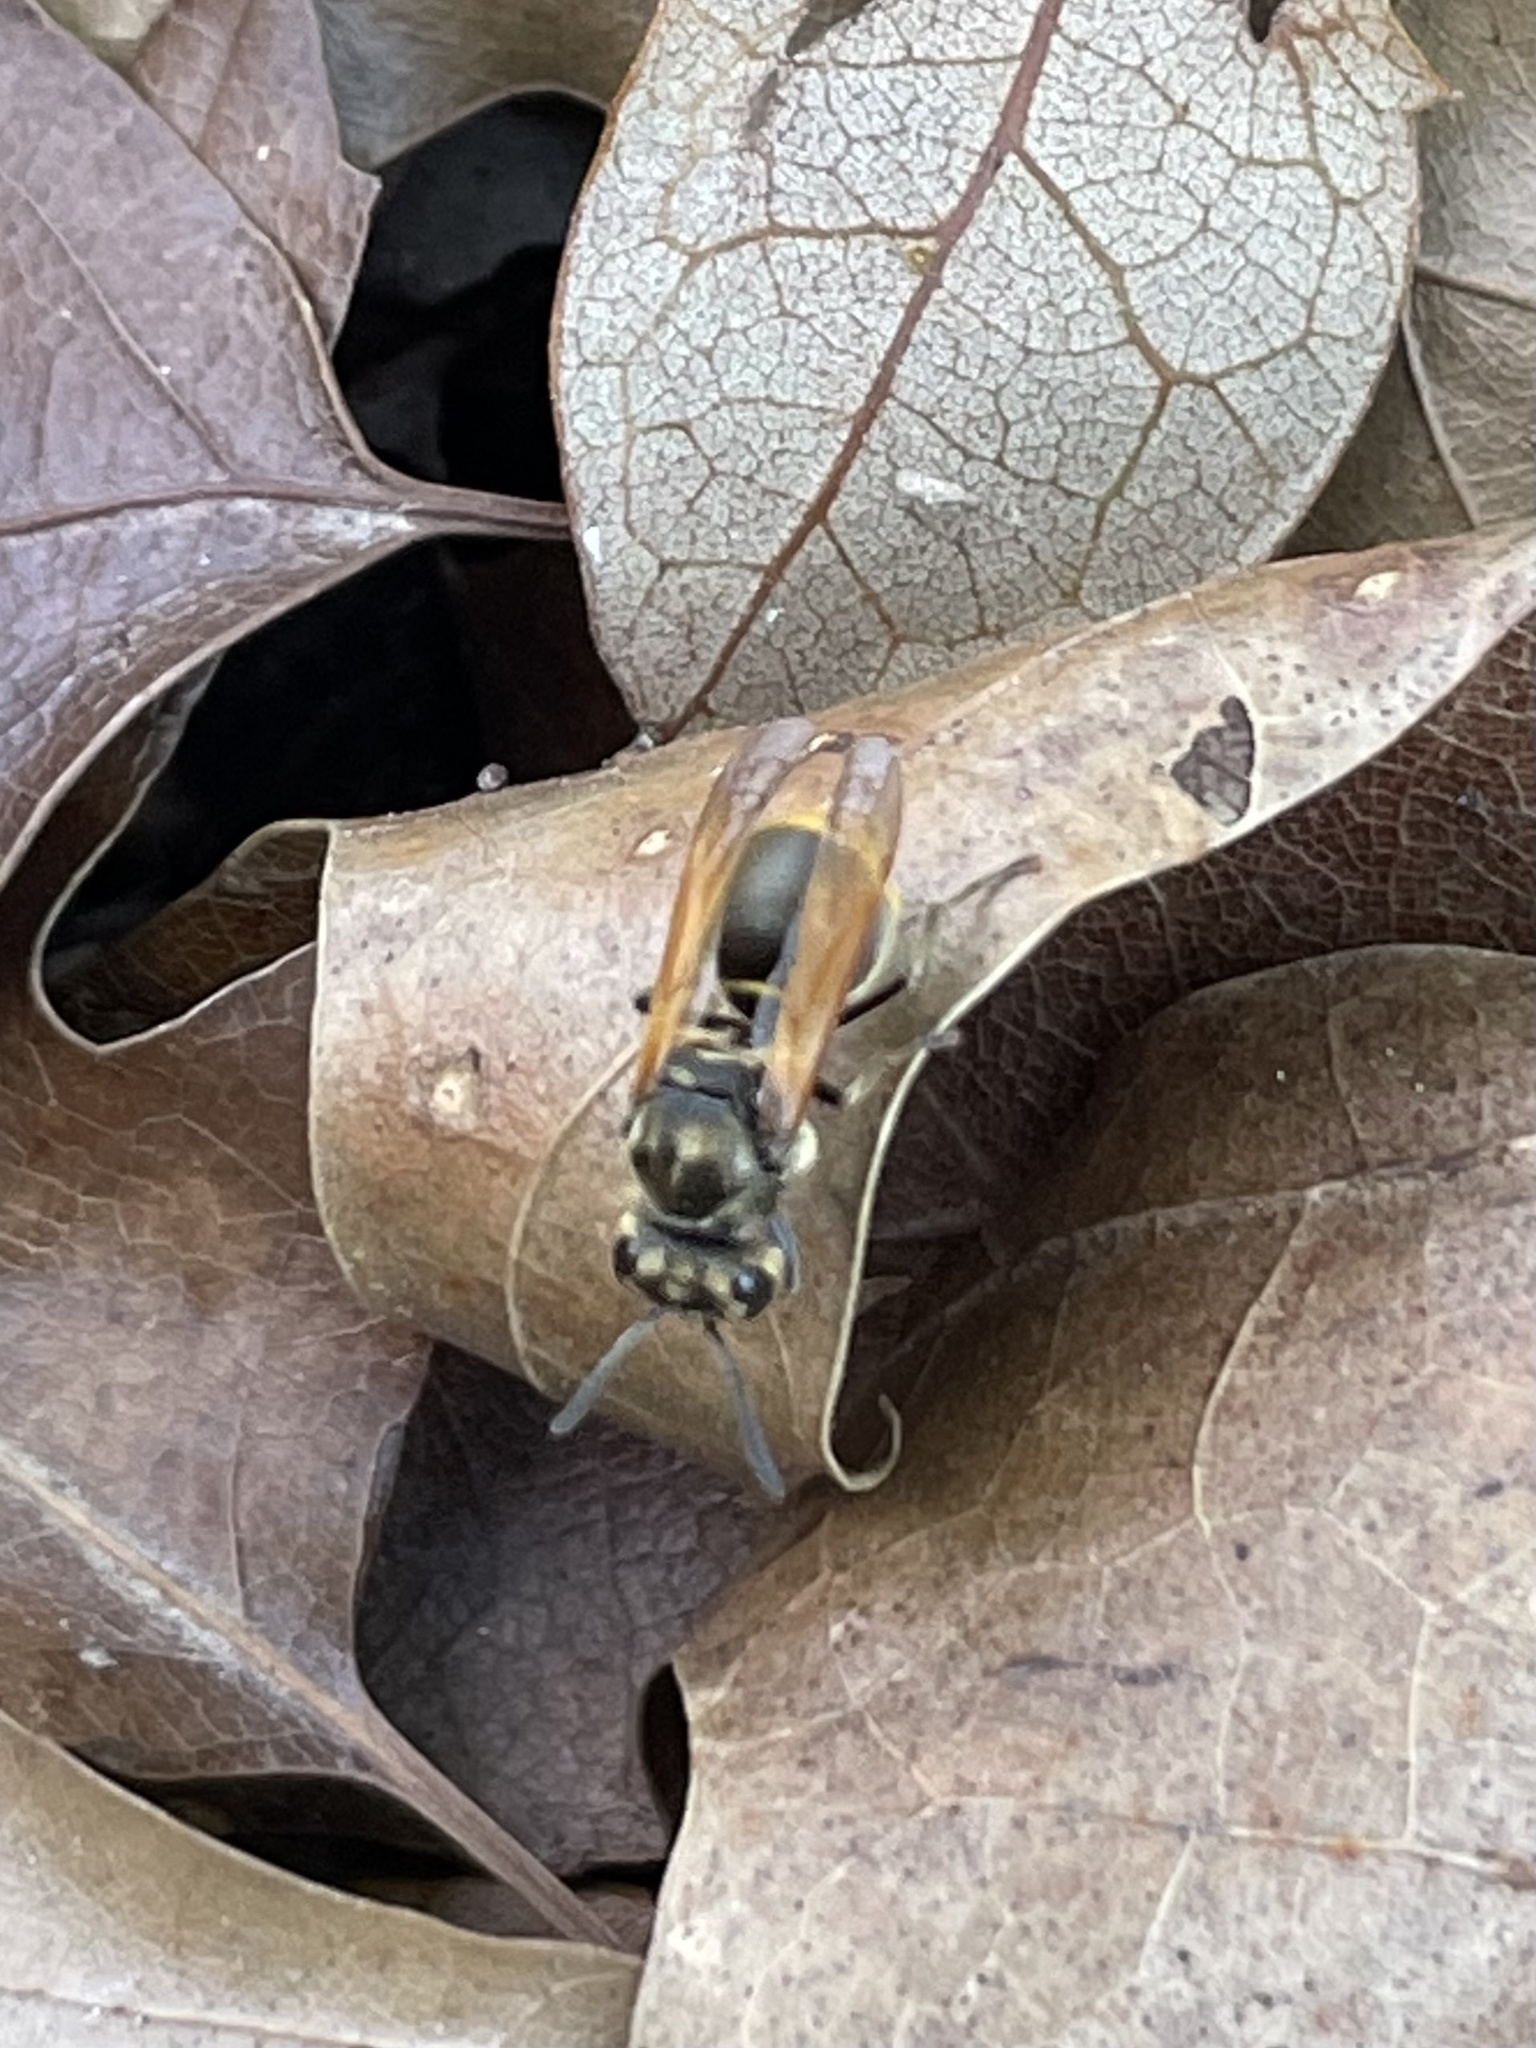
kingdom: Animalia
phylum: Arthropoda
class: Insecta
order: Hymenoptera
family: Vespidae
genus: Brachygastra
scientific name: Brachygastra mellifica
